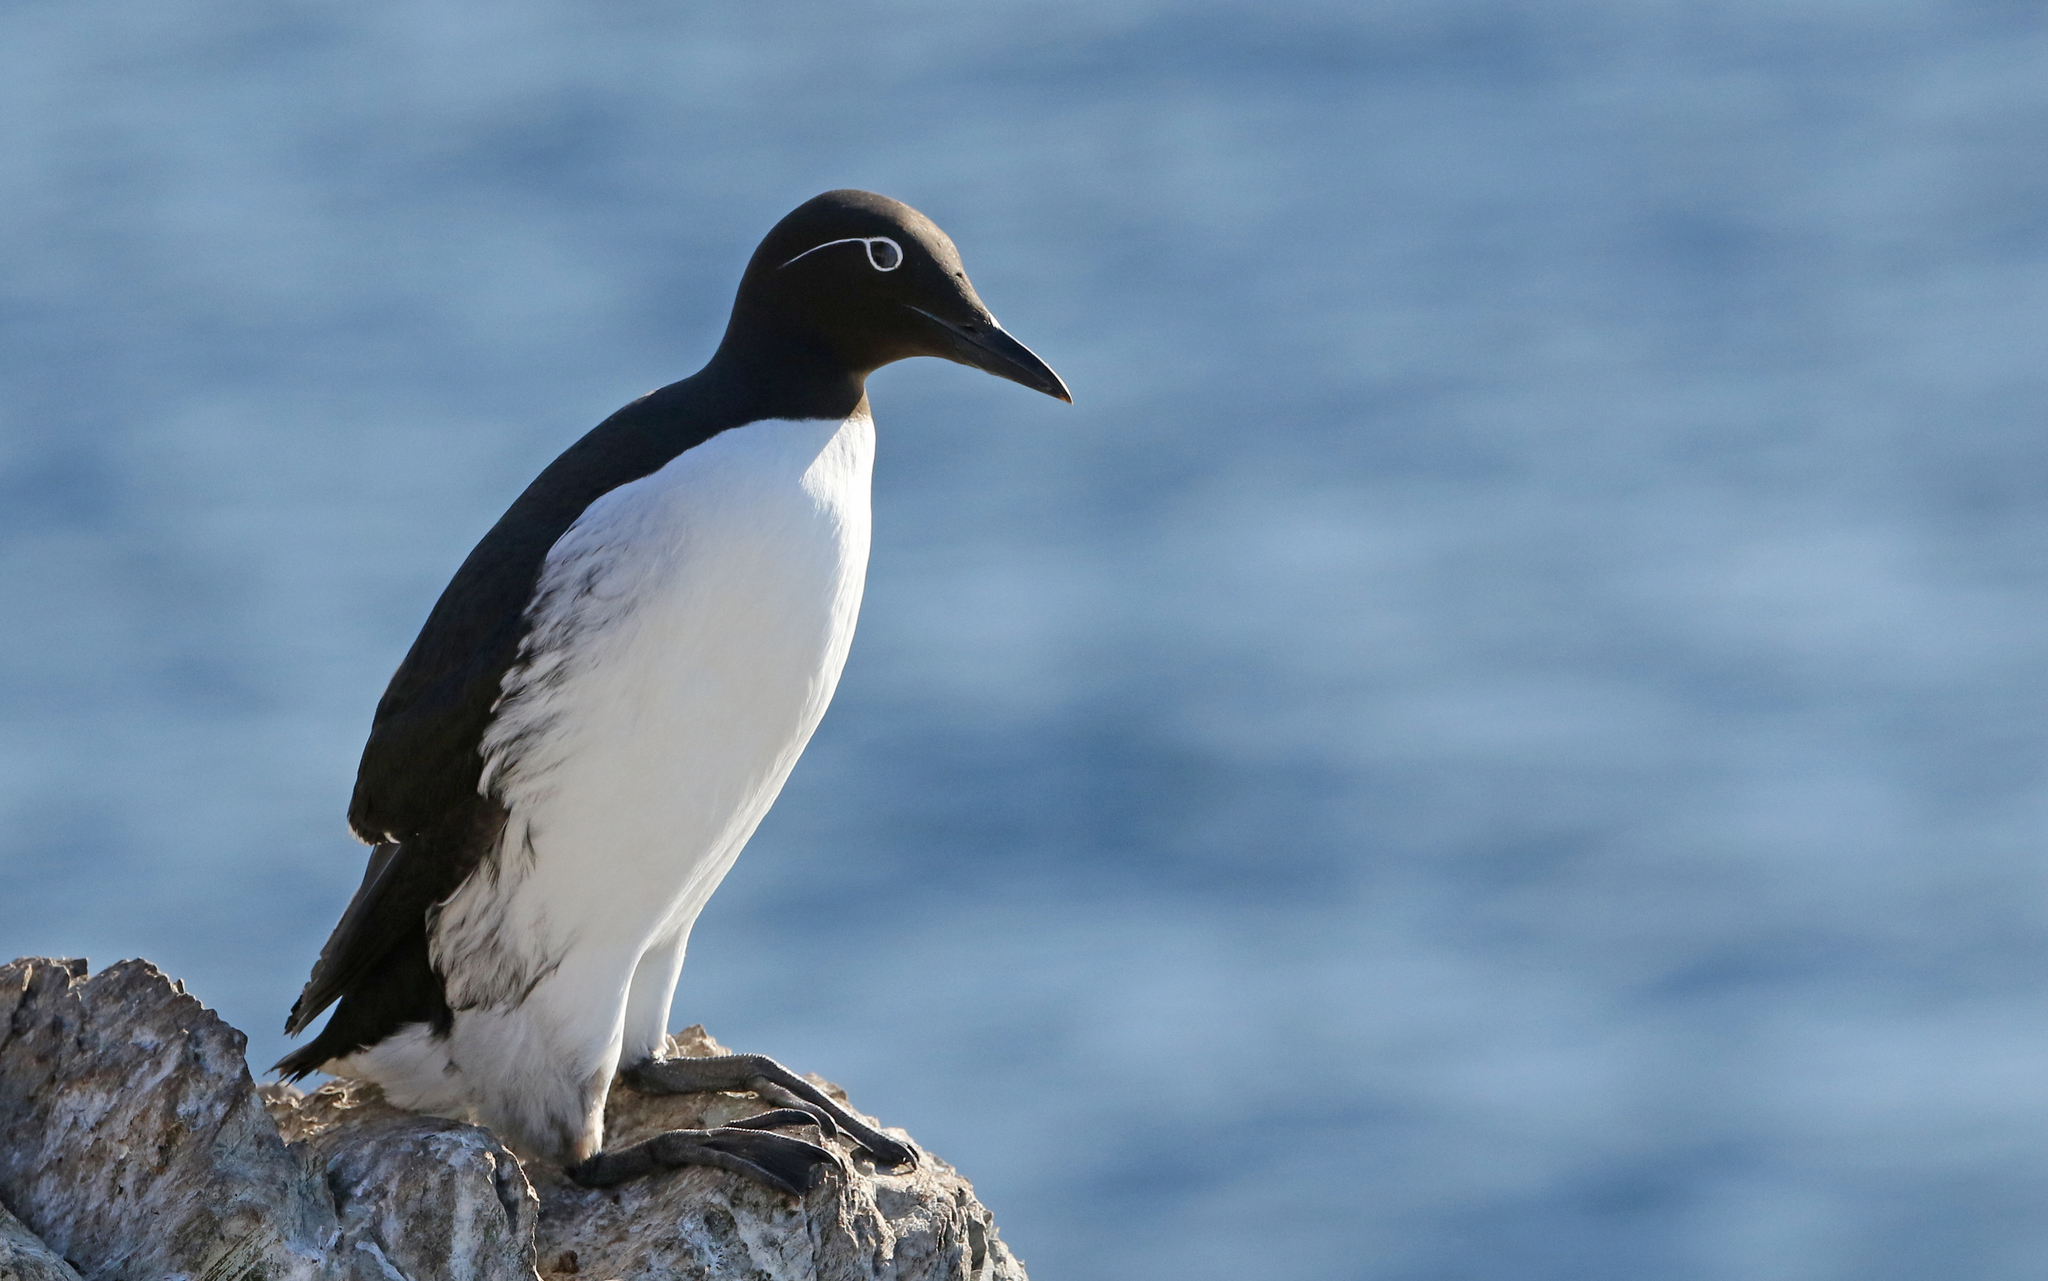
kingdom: Animalia
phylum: Chordata
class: Aves
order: Charadriiformes
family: Alcidae
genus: Uria
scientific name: Uria aalge
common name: Common murre
